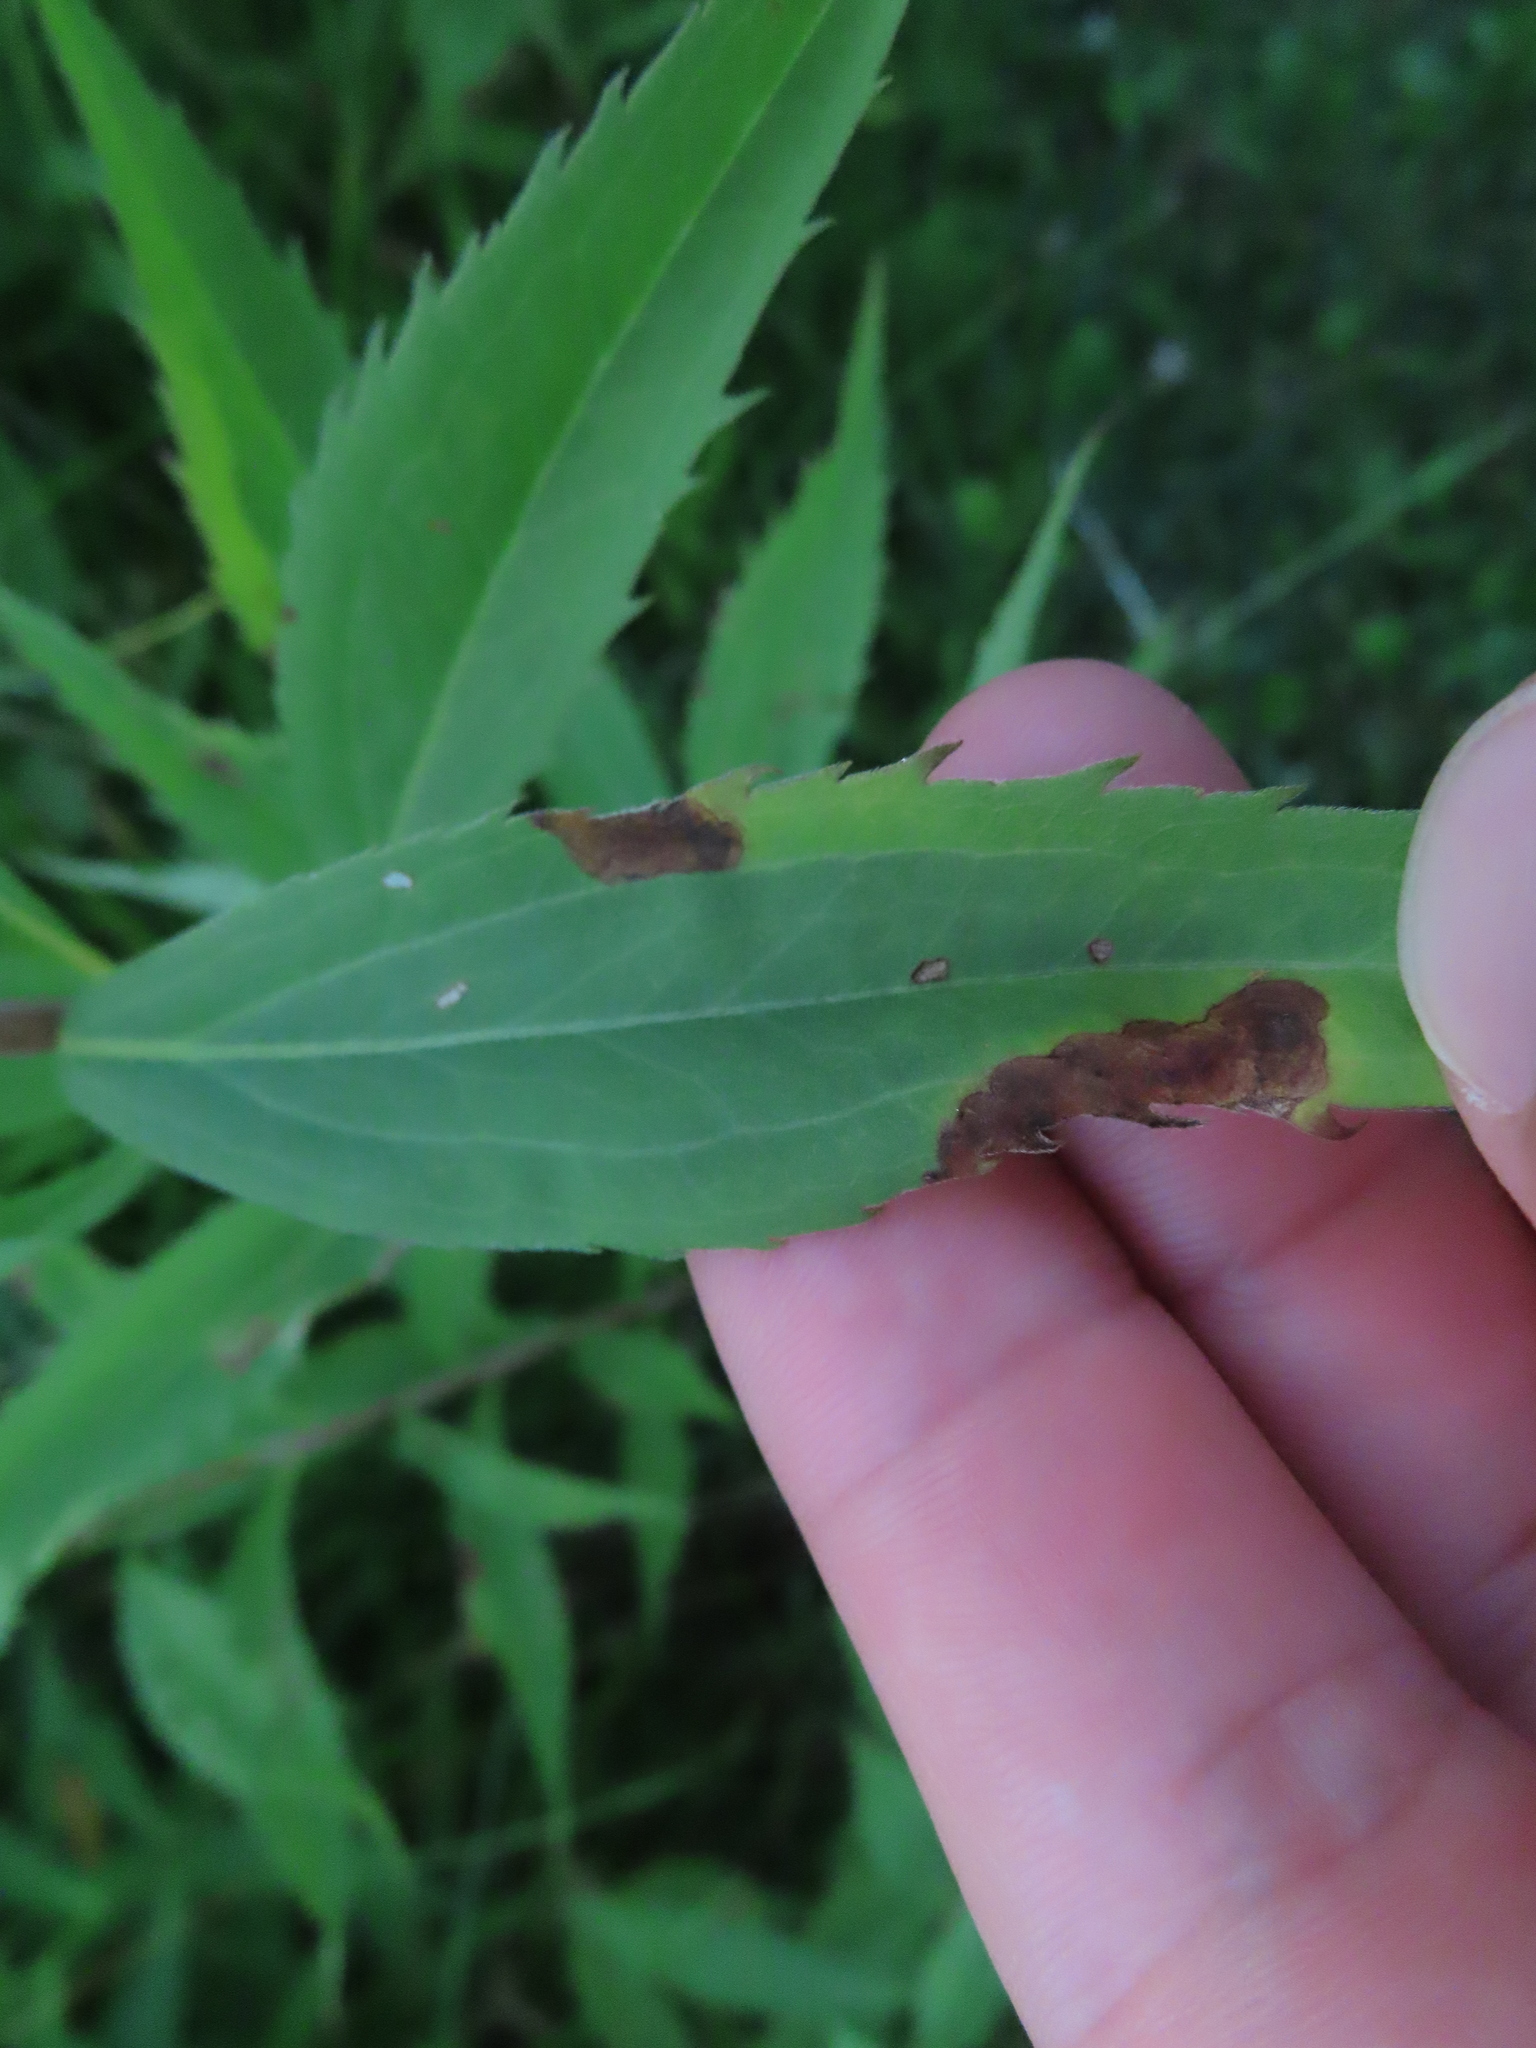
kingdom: Animalia
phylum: Arthropoda
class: Insecta
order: Diptera
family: Agromyzidae
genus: Nemorimyza
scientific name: Nemorimyza posticata
